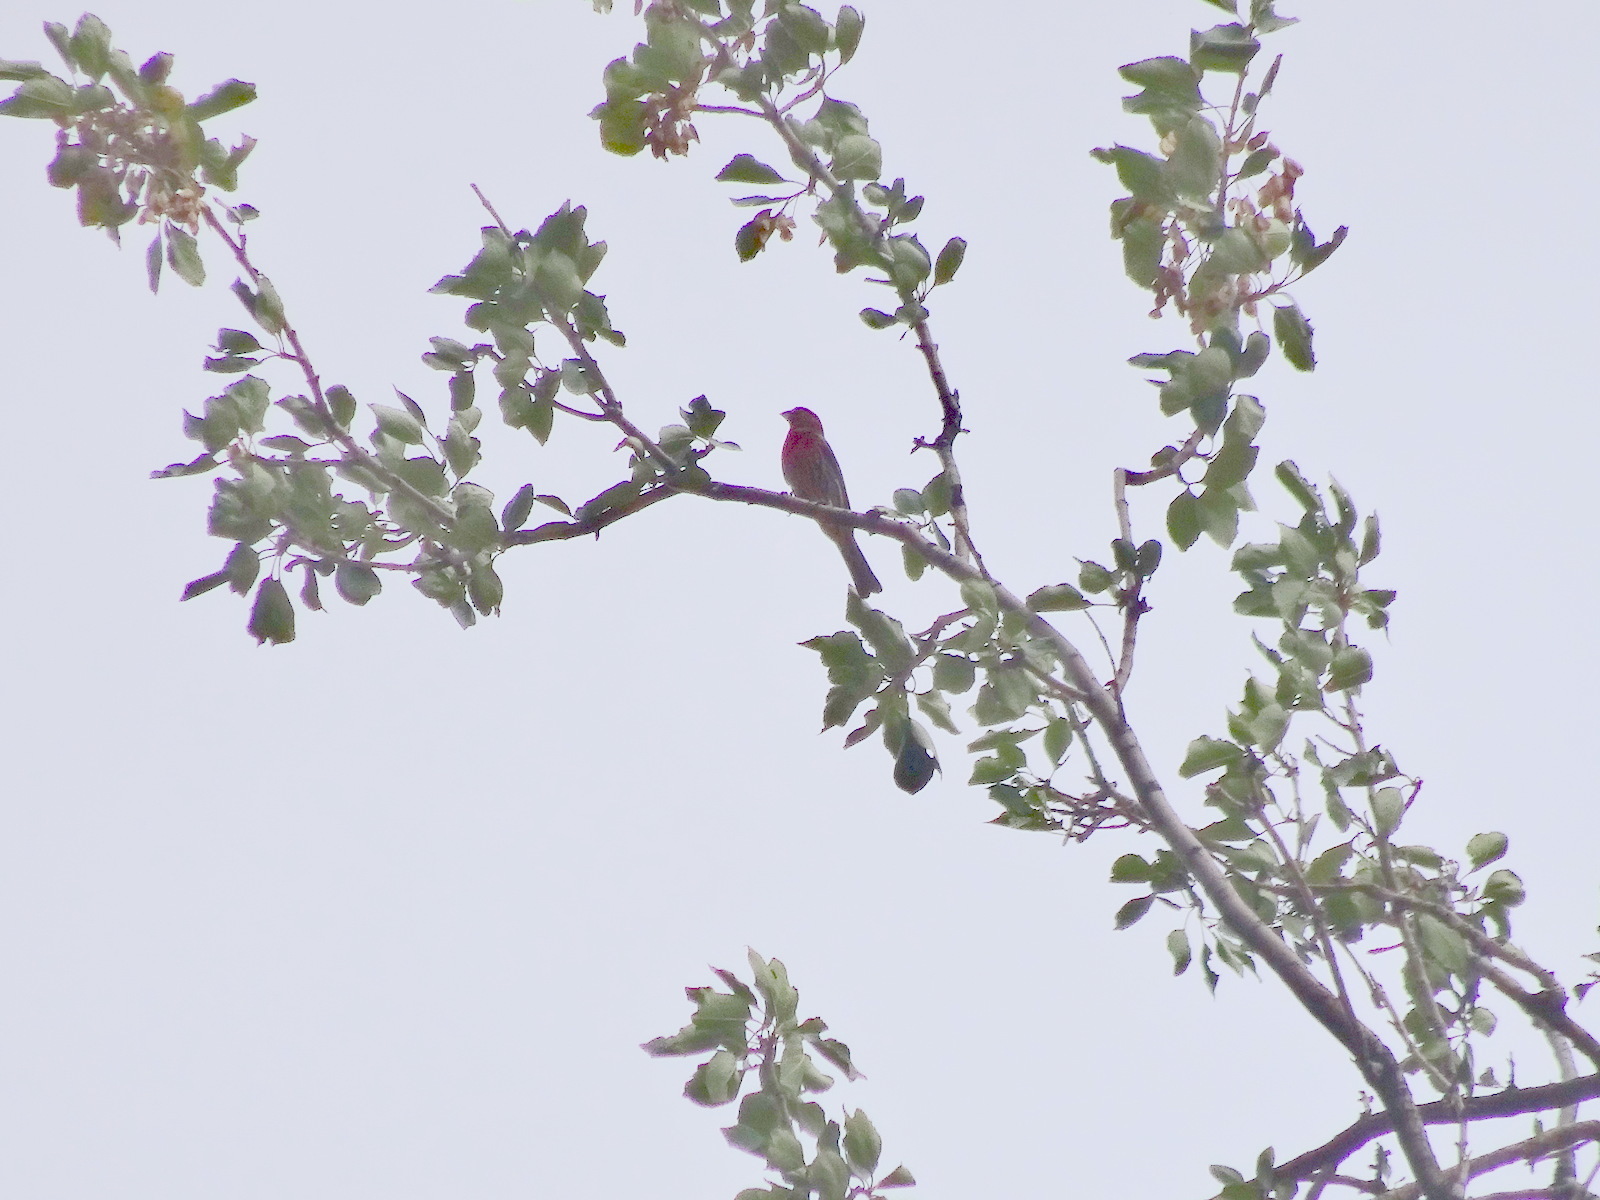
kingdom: Animalia
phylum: Chordata
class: Aves
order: Passeriformes
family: Fringillidae
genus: Haemorhous
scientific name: Haemorhous mexicanus
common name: House finch
